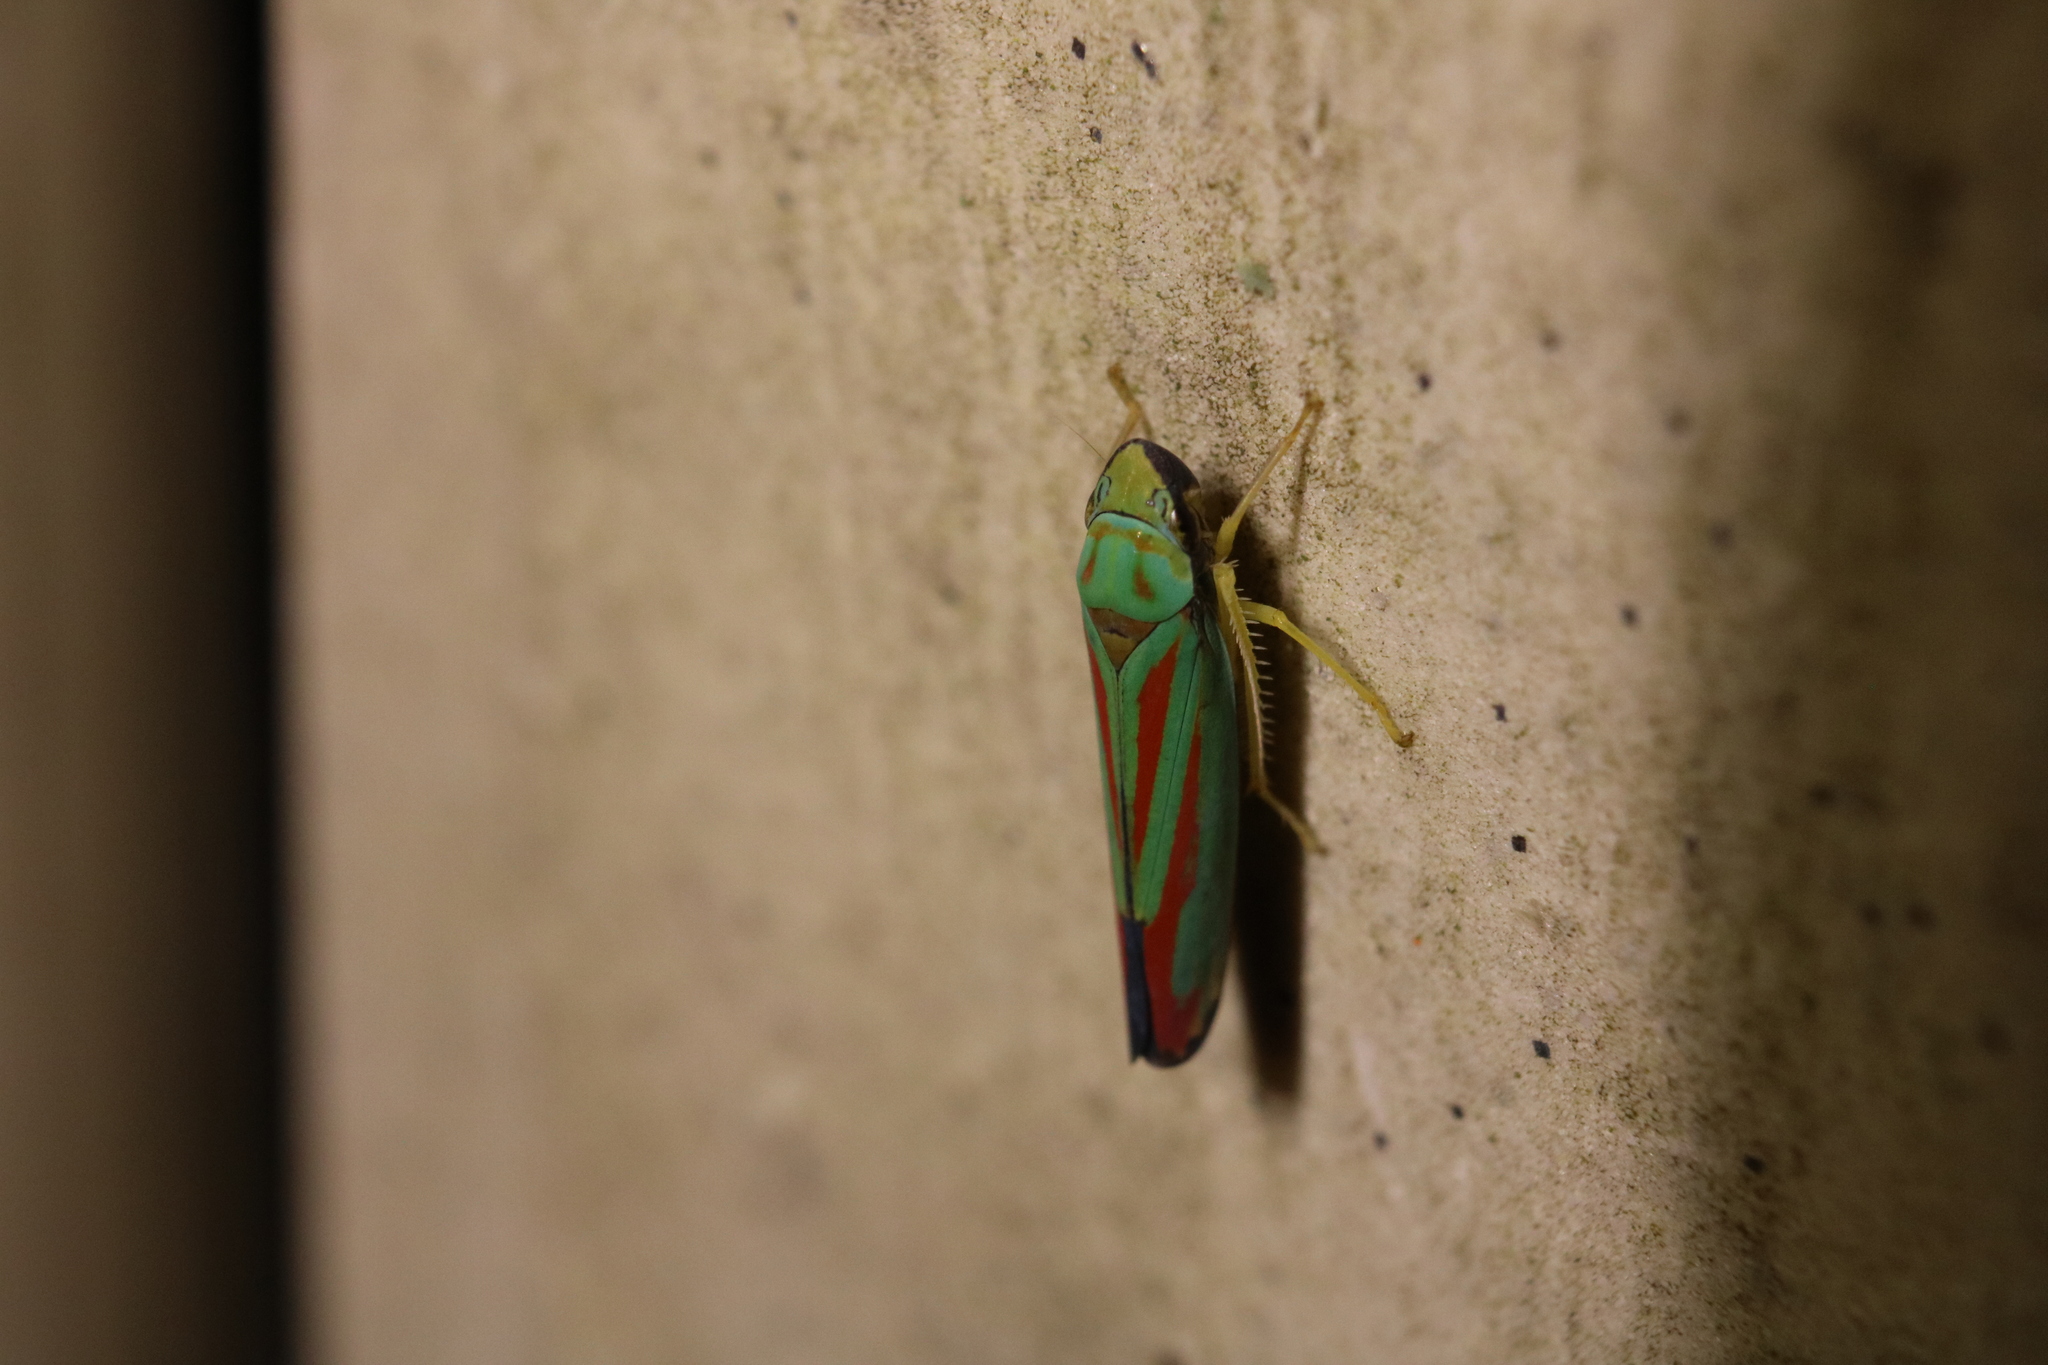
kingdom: Animalia
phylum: Arthropoda
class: Insecta
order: Hemiptera
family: Cicadellidae
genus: Graphocephala
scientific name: Graphocephala fennahi
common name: Rhododendron leafhopper
